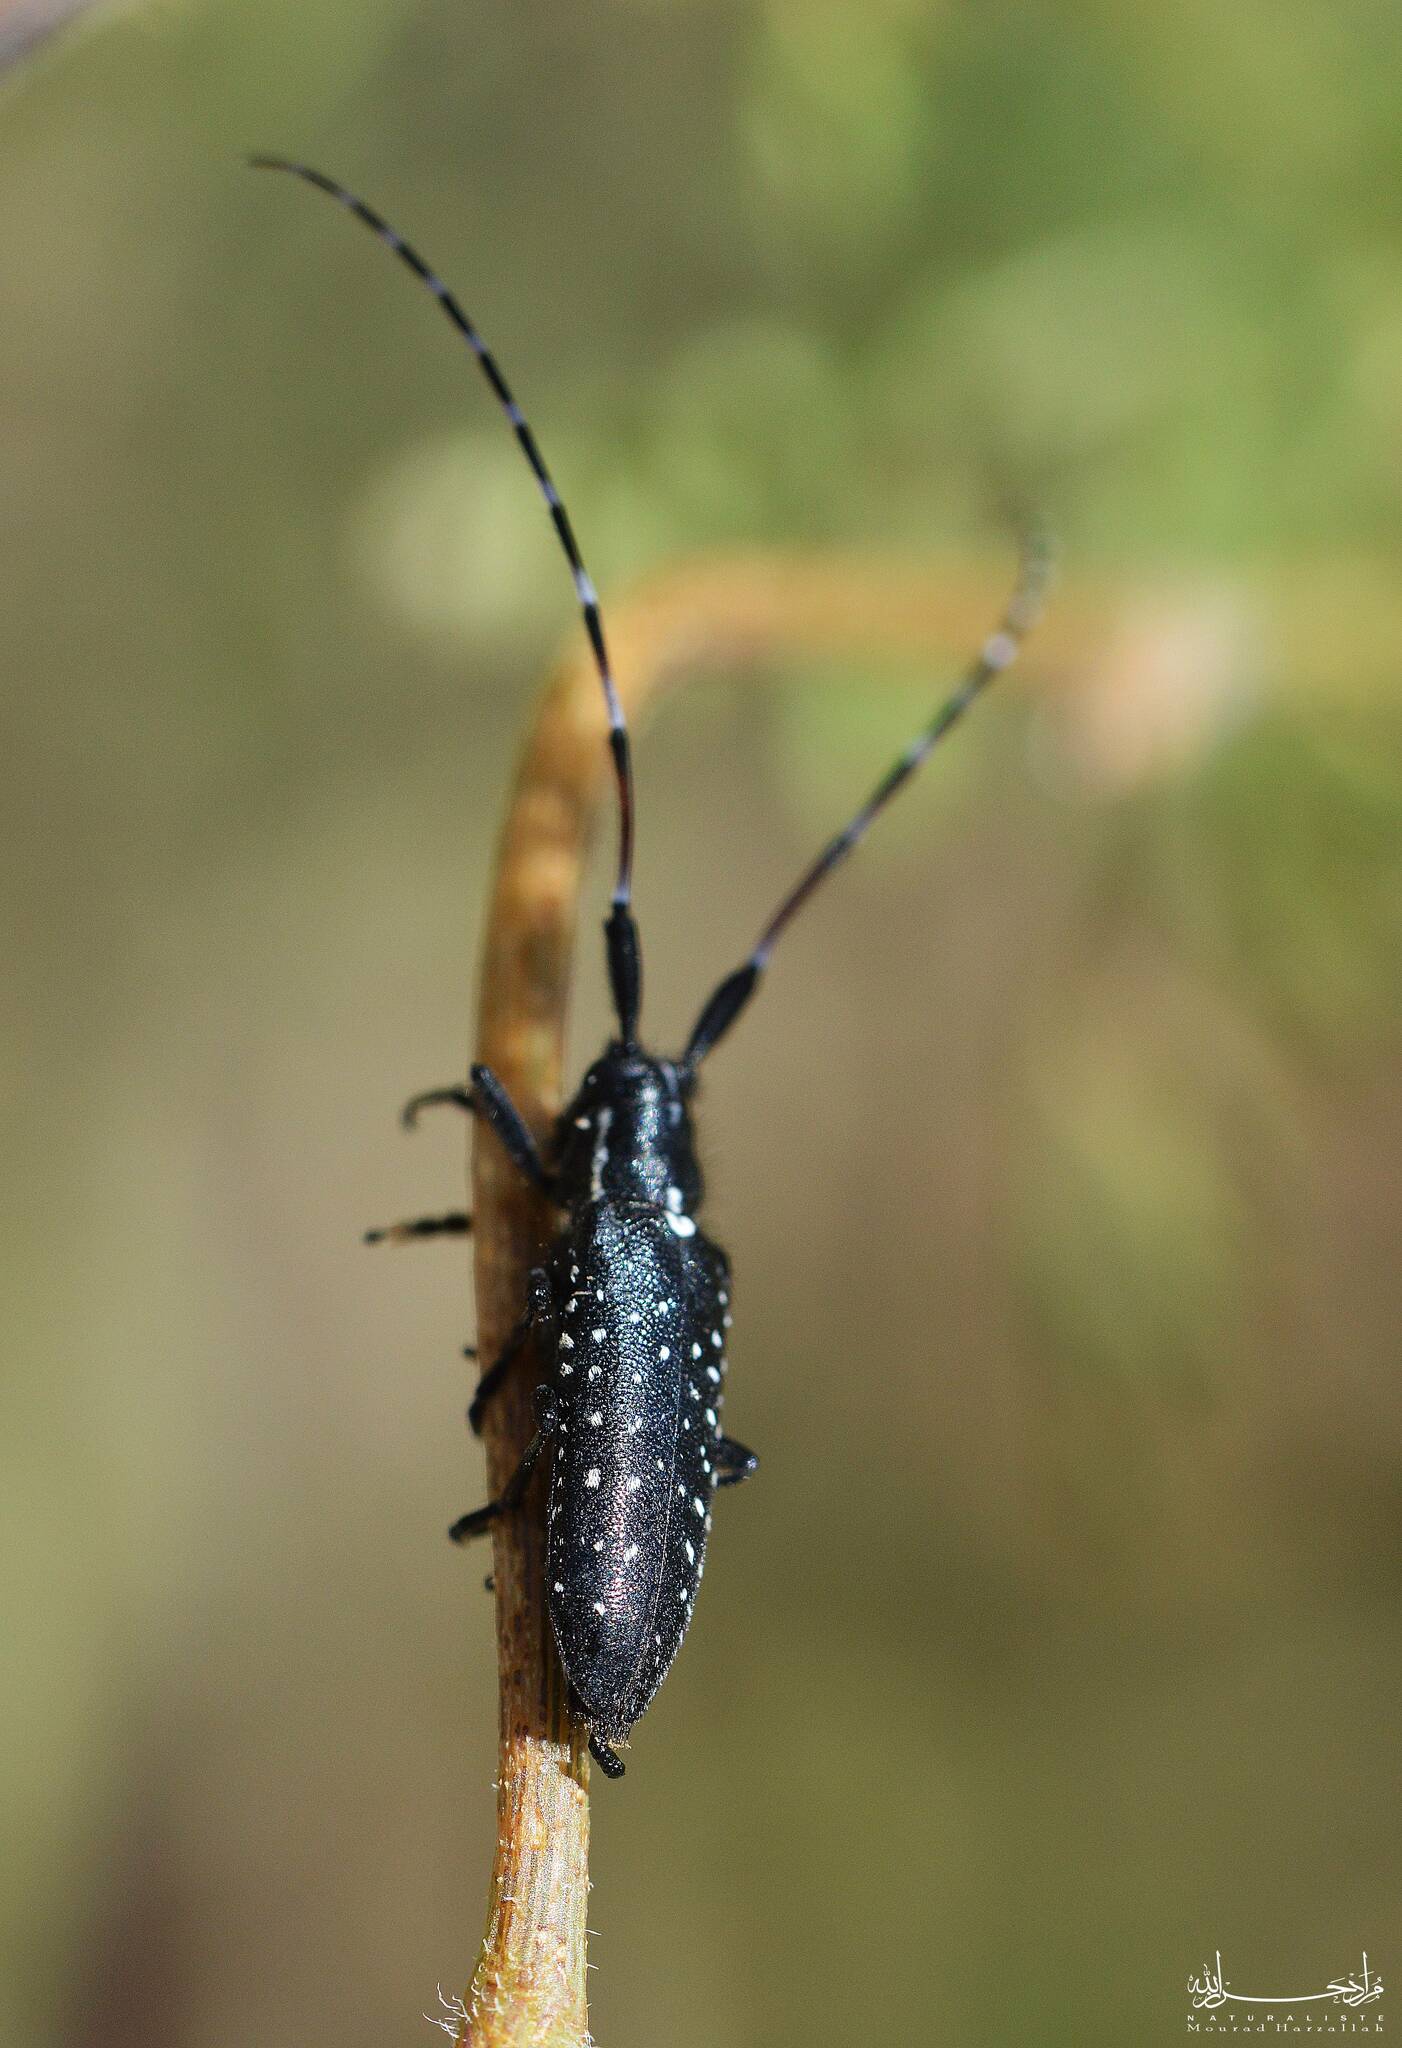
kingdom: Animalia
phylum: Arthropoda
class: Insecta
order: Coleoptera
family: Cerambycidae
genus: Agapanthia
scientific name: Agapanthia irrorata
